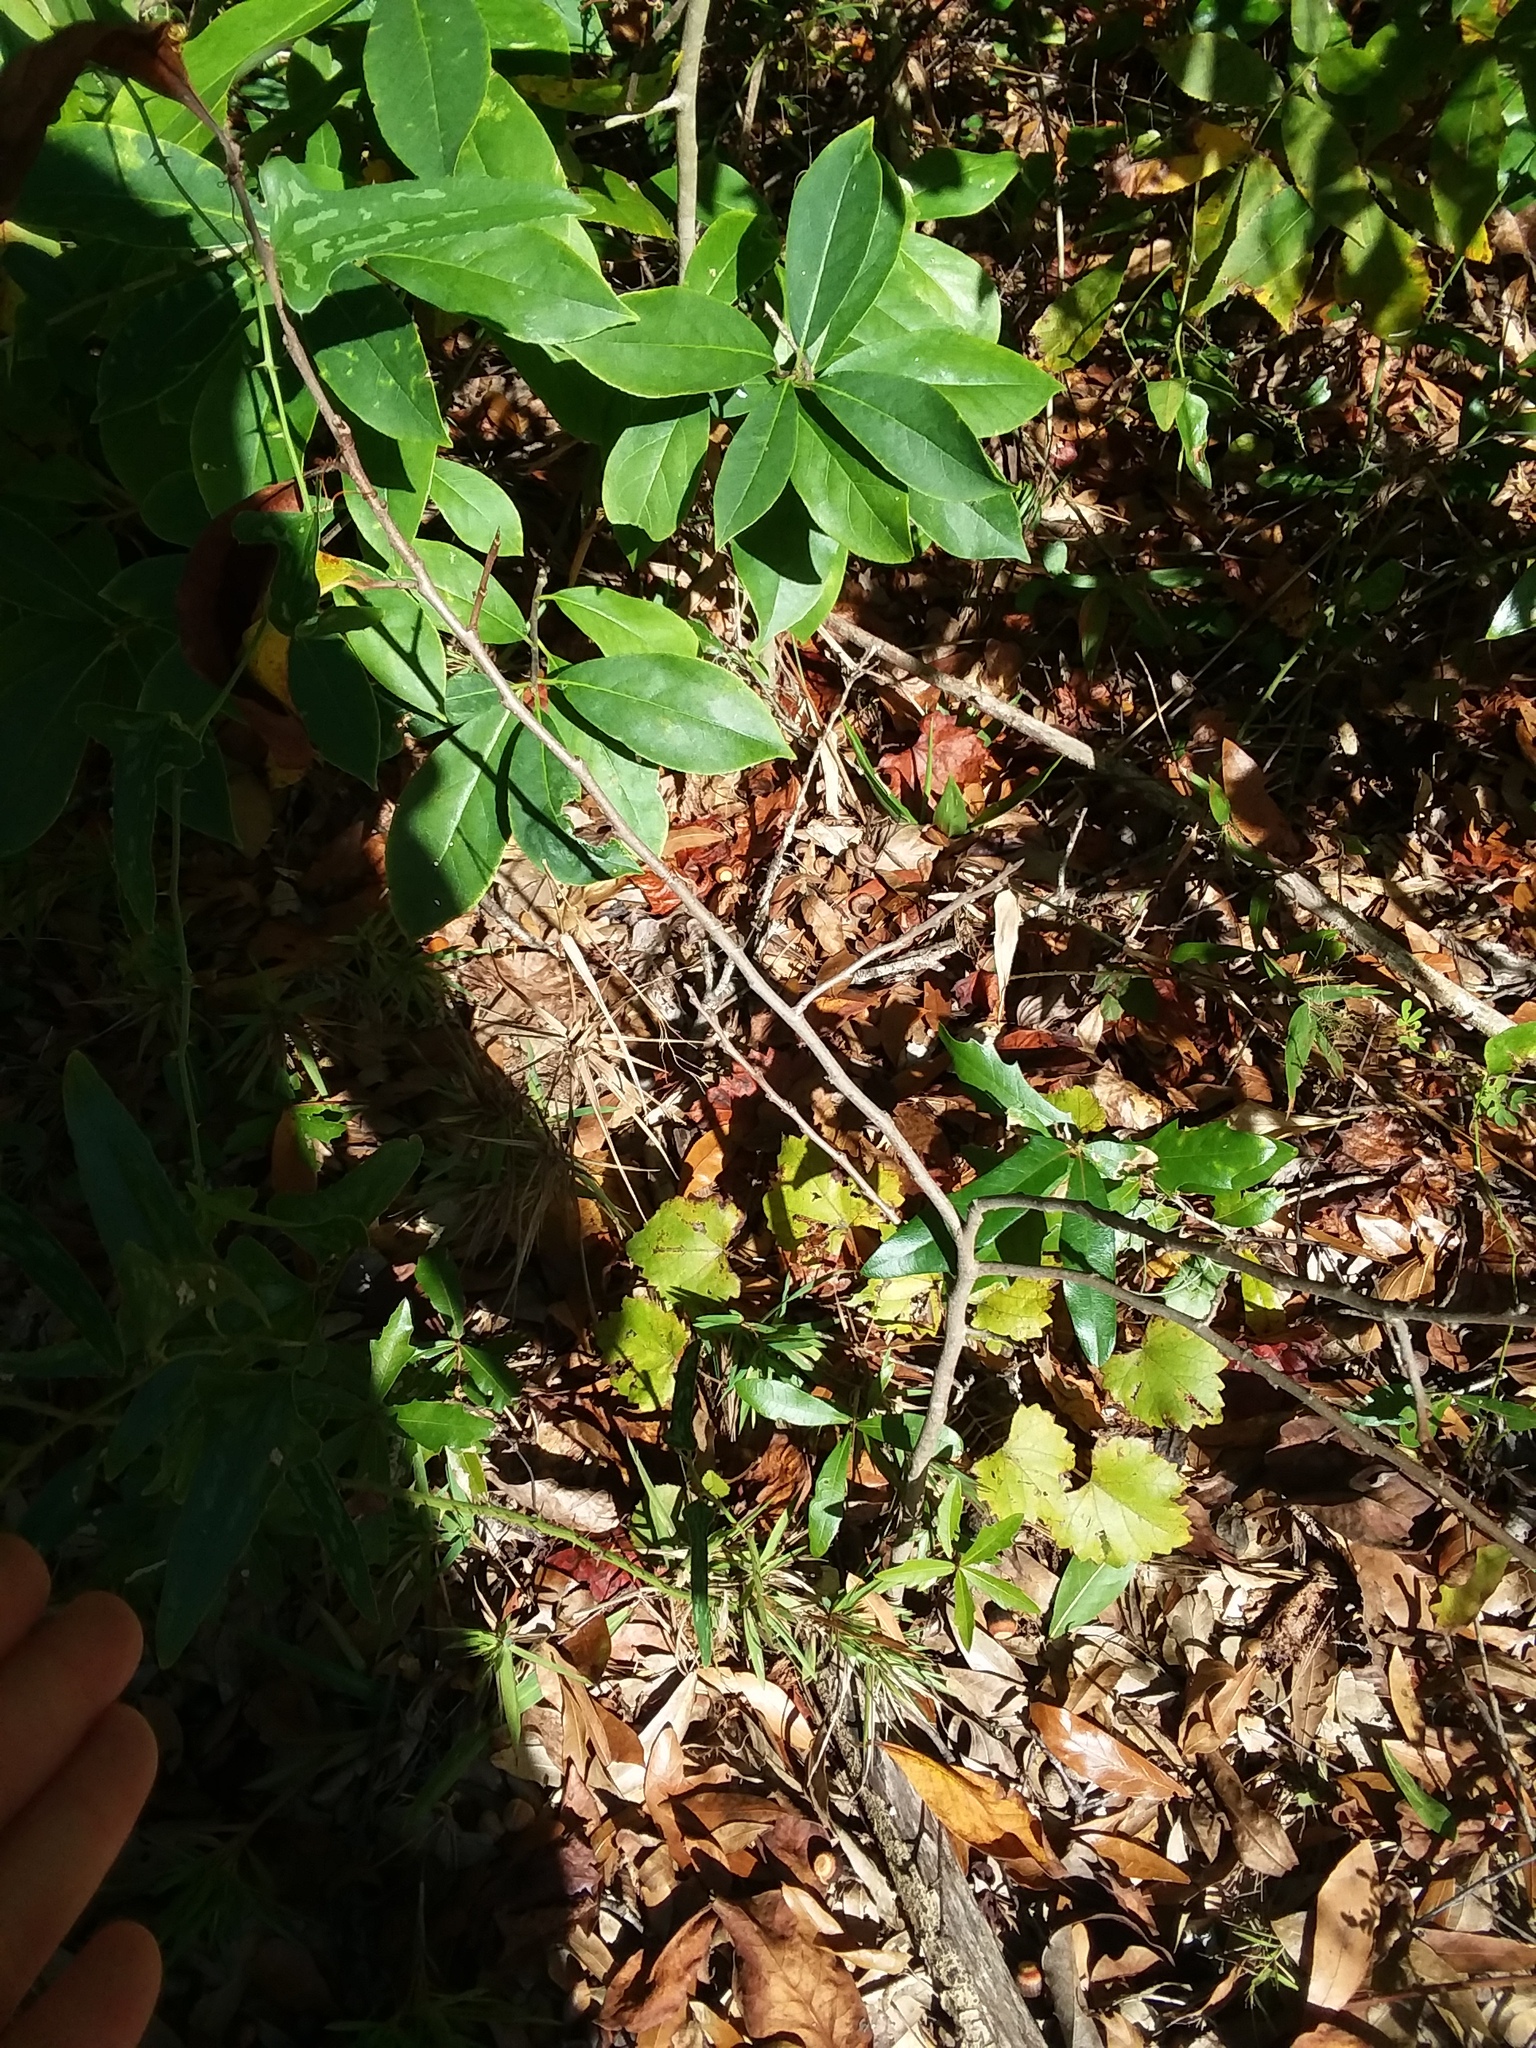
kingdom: Plantae
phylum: Tracheophyta
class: Magnoliopsida
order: Magnoliales
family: Annonaceae
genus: Asimina
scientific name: Asimina parviflora
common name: Dwarf pawpaw
